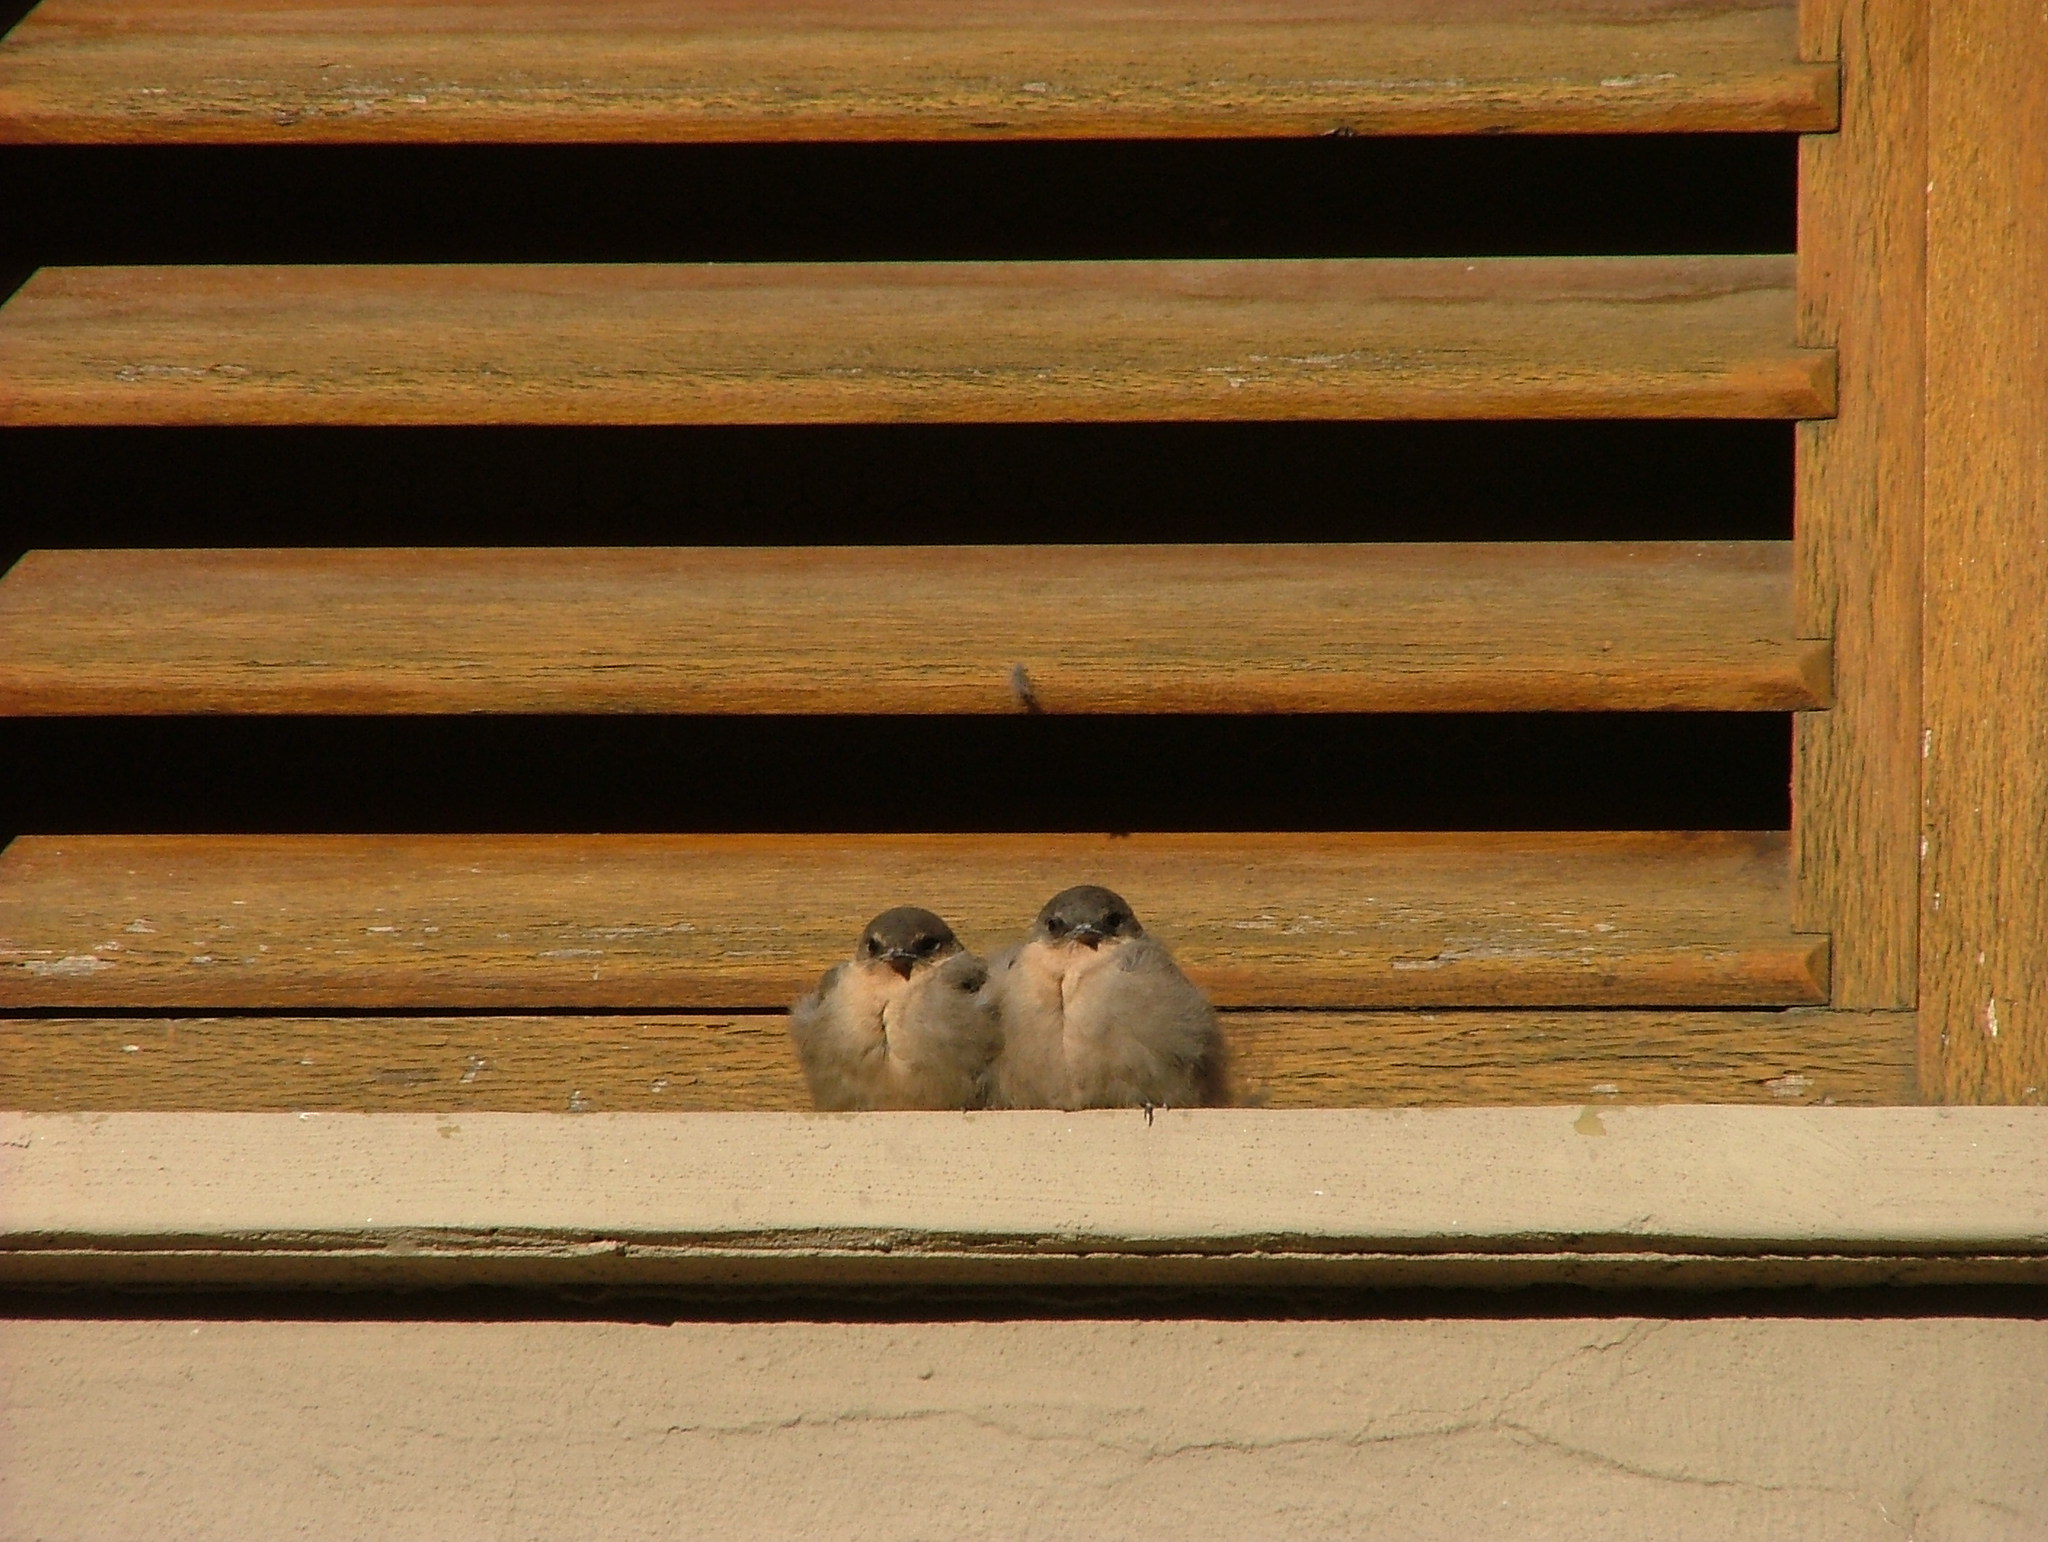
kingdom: Animalia
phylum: Chordata
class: Aves
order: Passeriformes
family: Hirundinidae
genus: Ptyonoprogne
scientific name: Ptyonoprogne fuligula
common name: Rock martin
